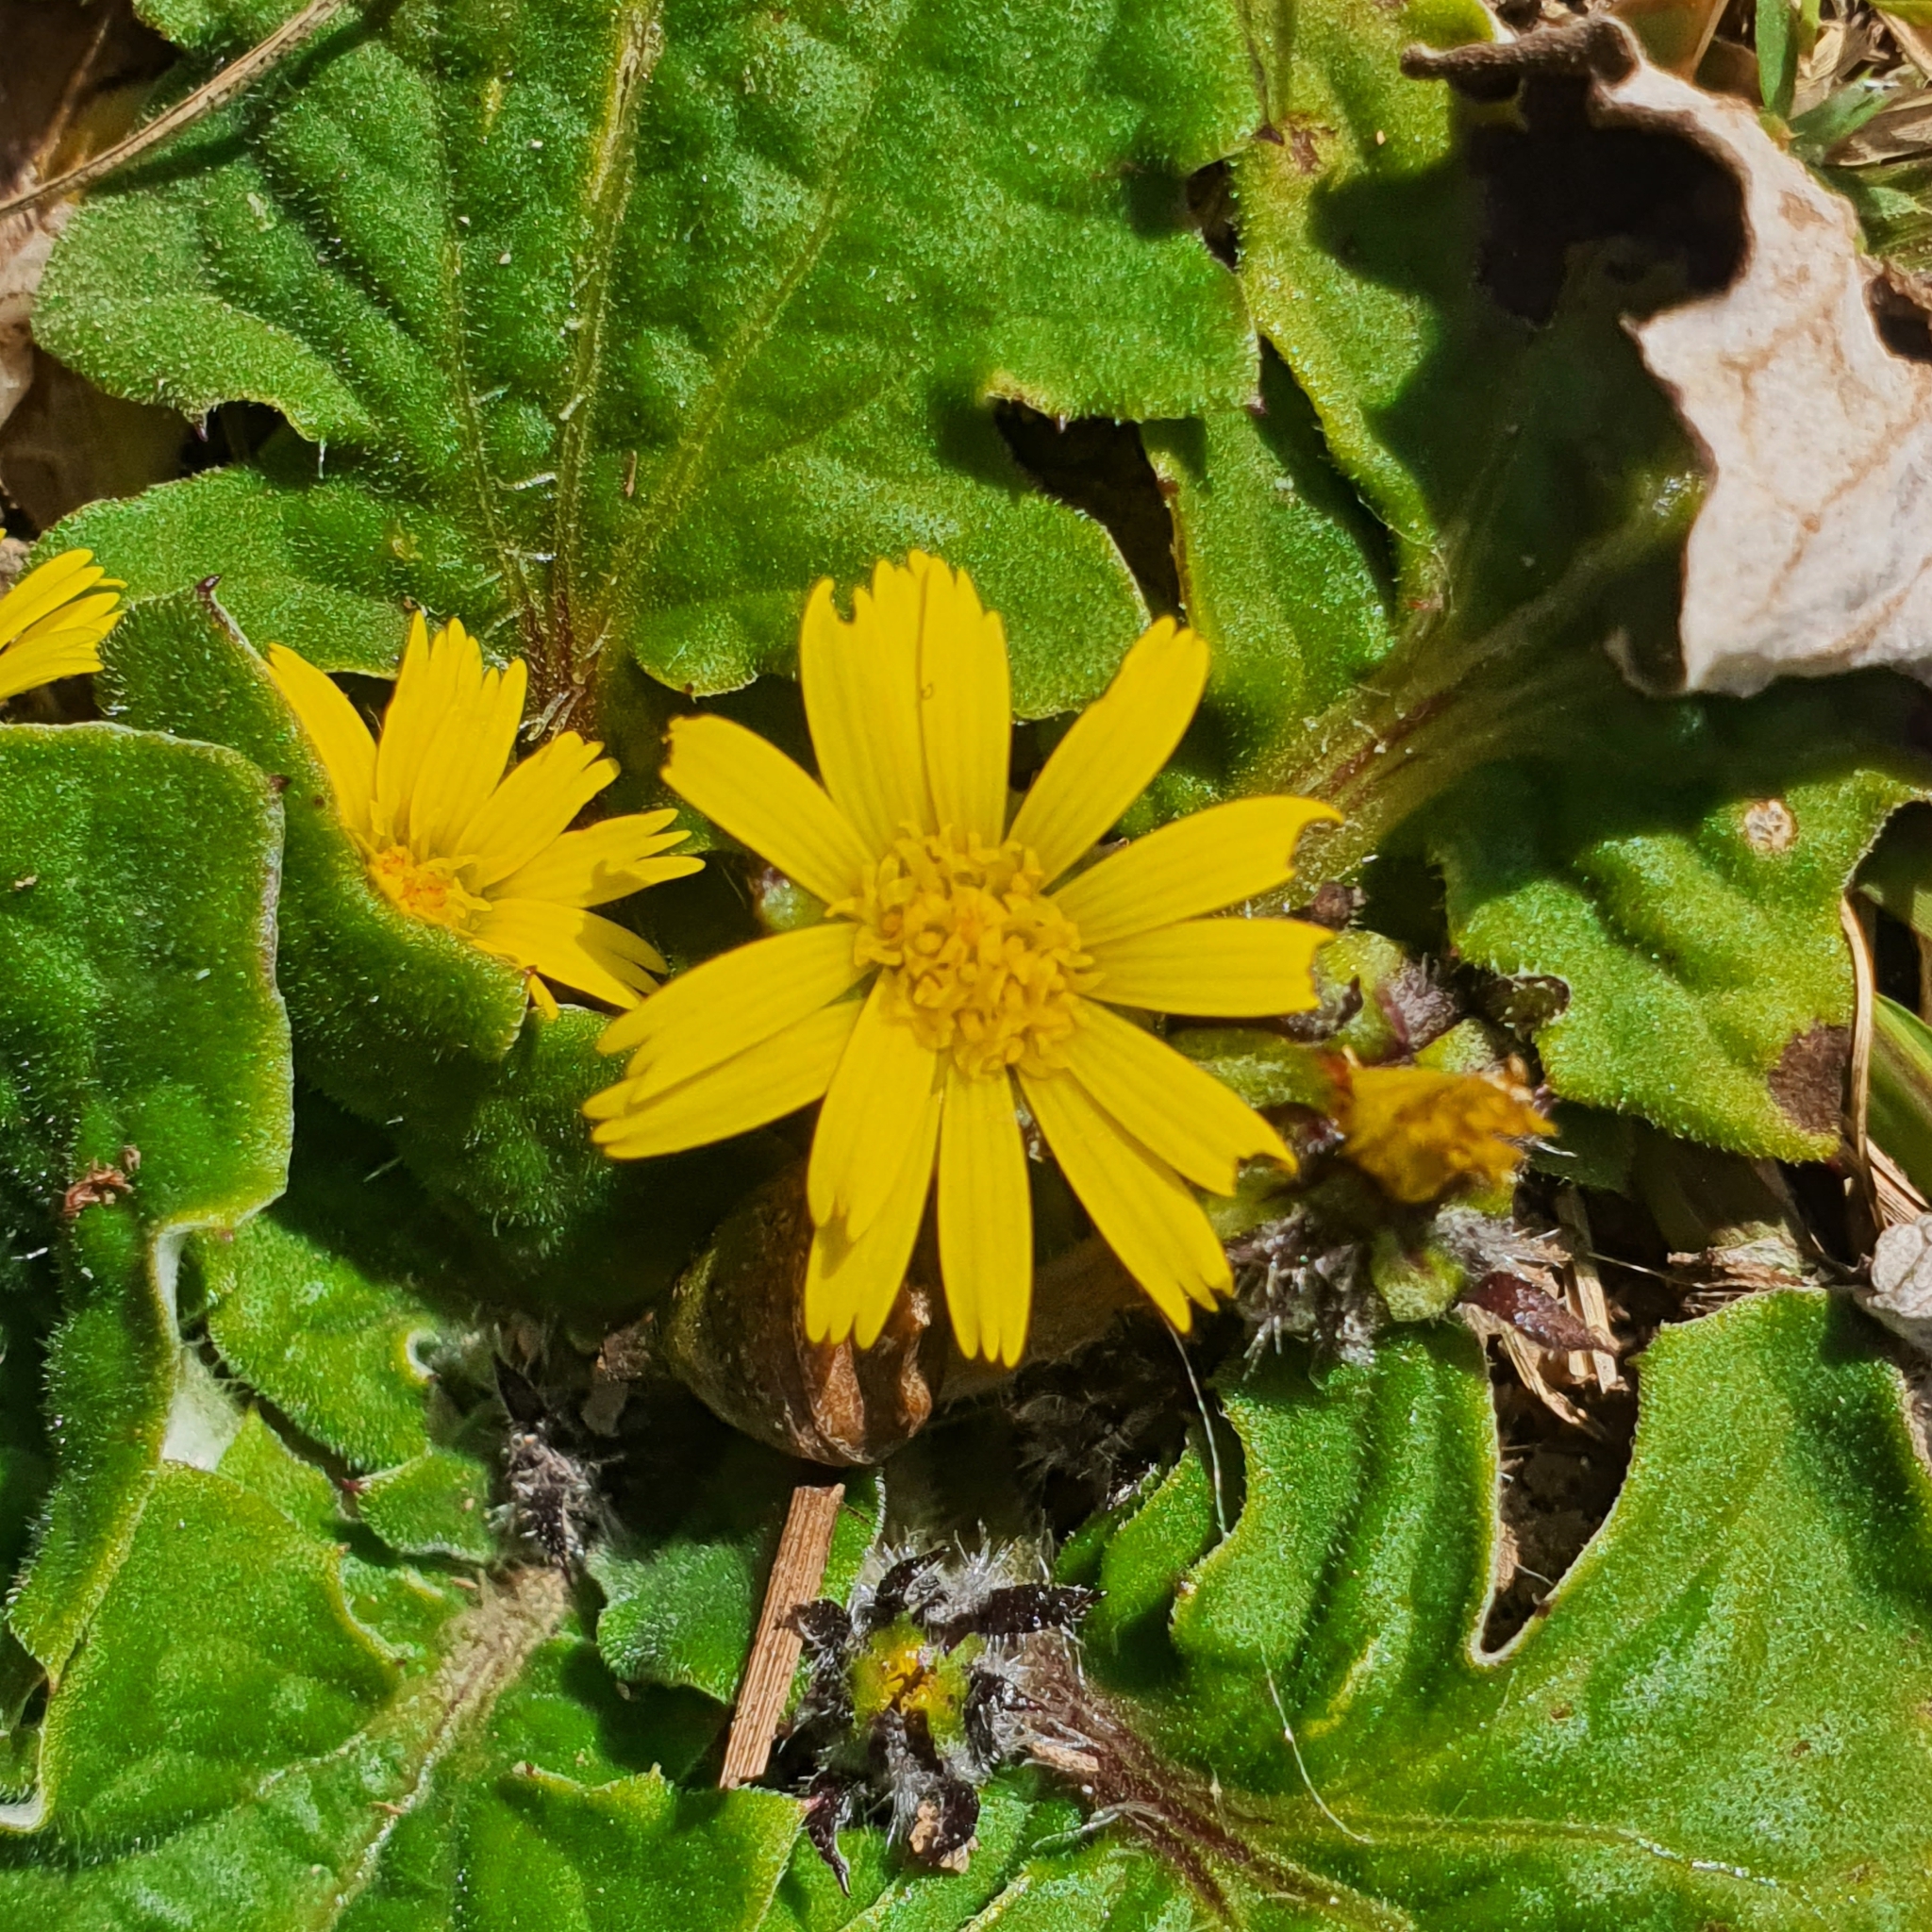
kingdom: Plantae
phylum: Tracheophyta
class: Magnoliopsida
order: Asterales
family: Asteraceae
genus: Cymbonotus
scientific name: Cymbonotus
